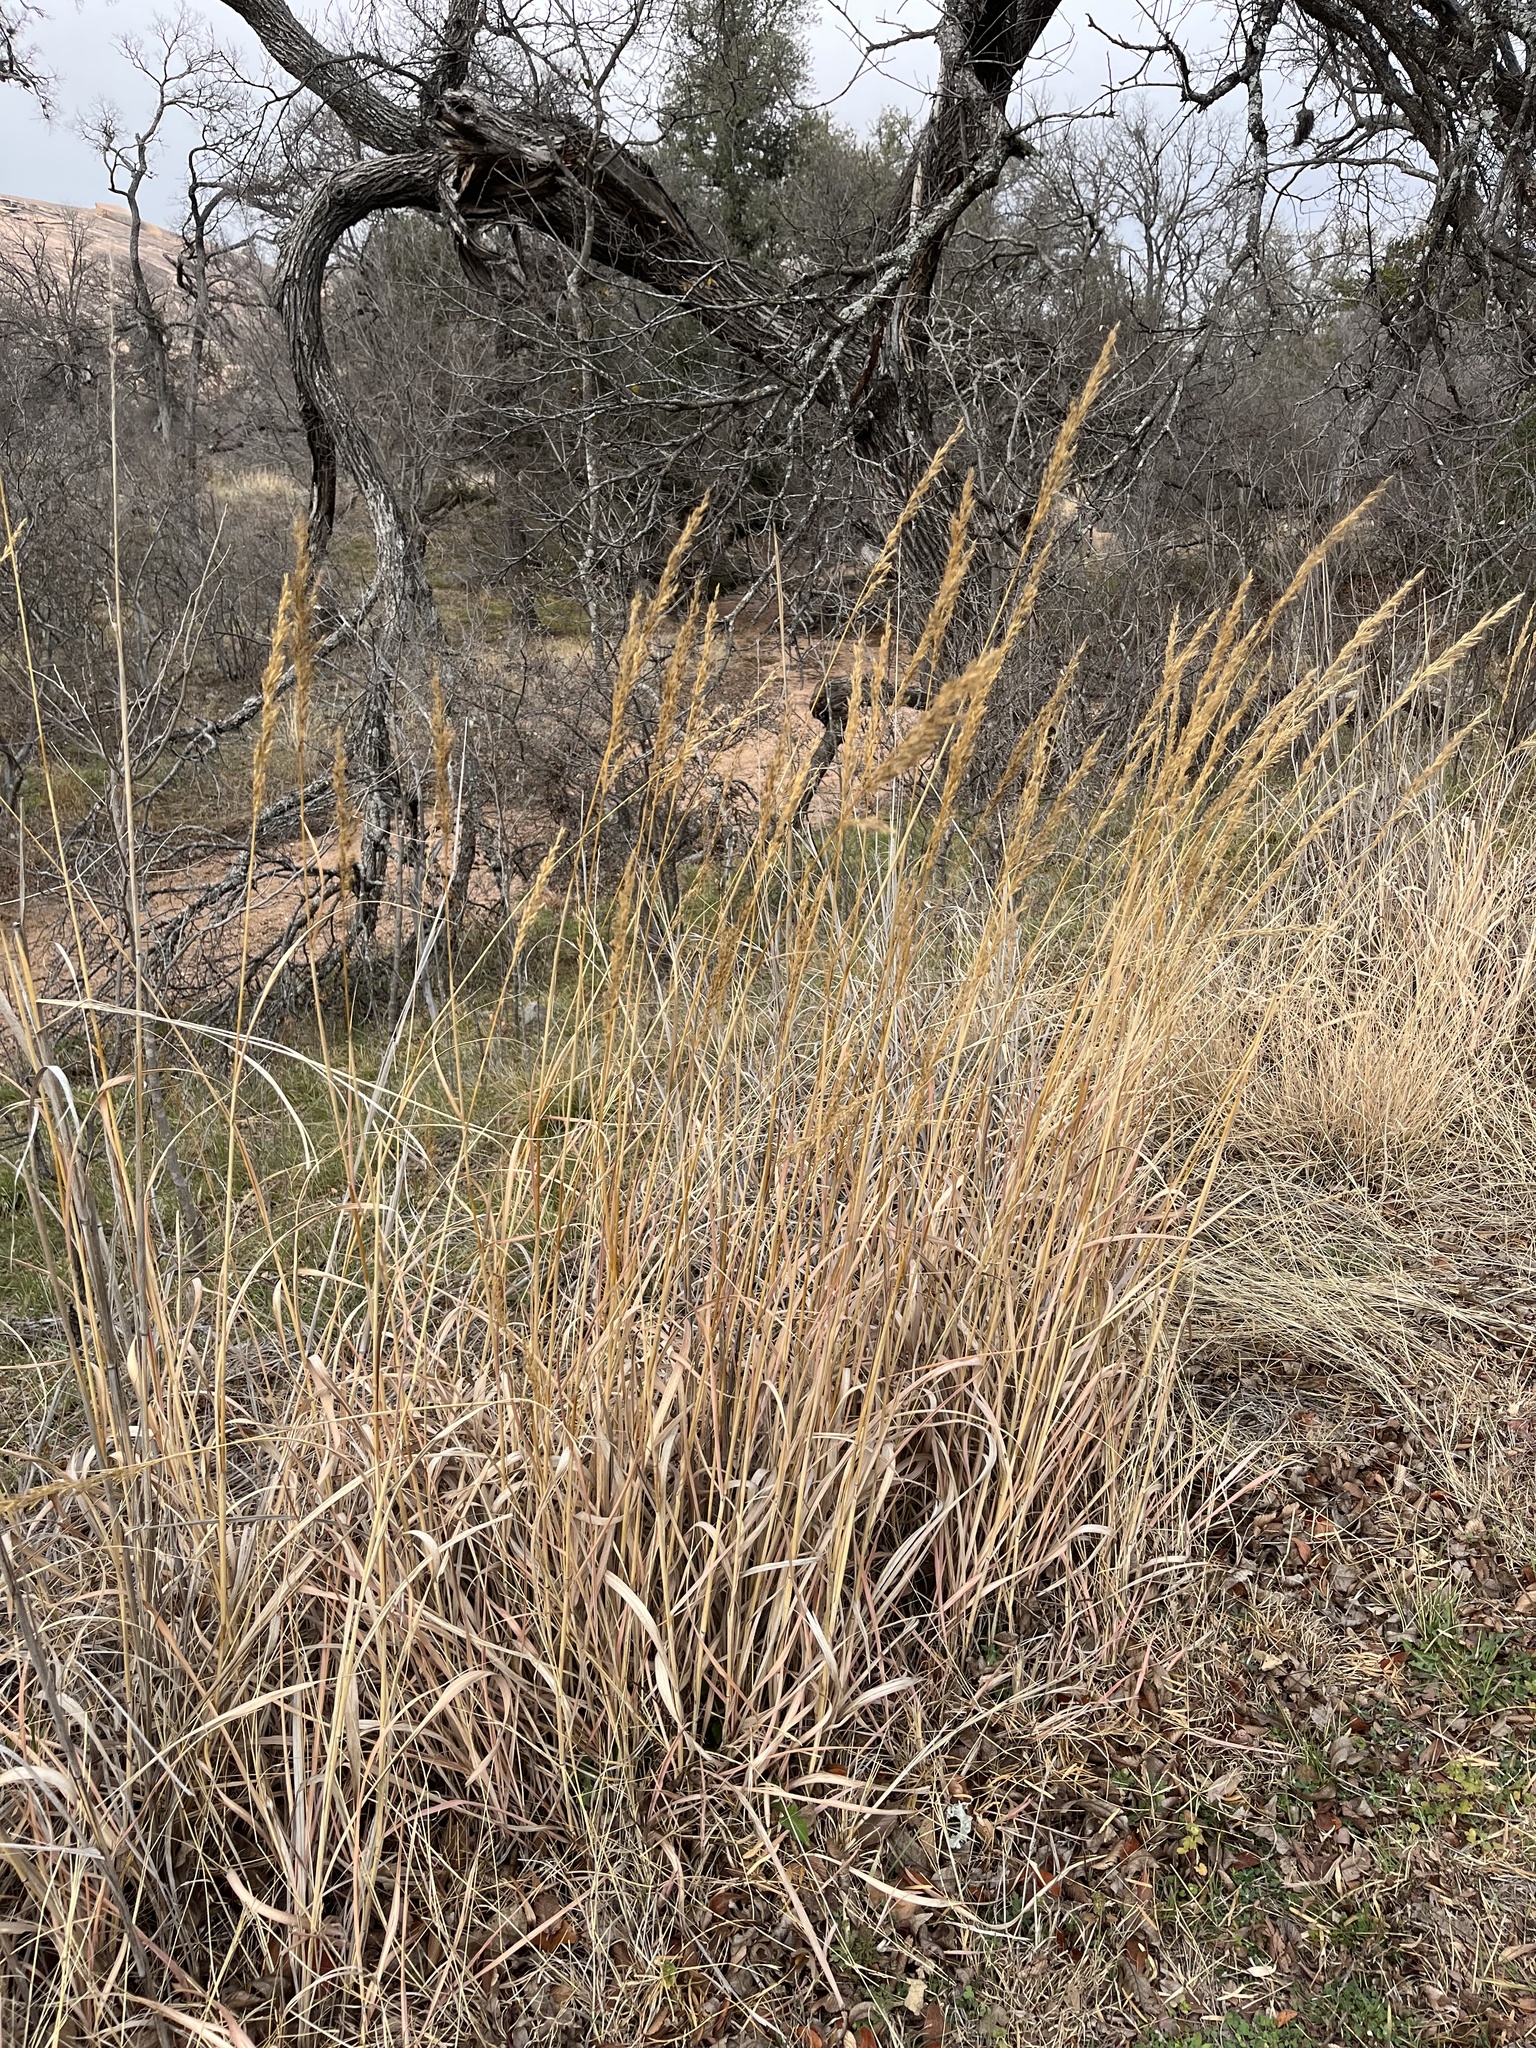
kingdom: Plantae
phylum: Tracheophyta
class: Liliopsida
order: Poales
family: Poaceae
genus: Sorghastrum
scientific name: Sorghastrum nutans
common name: Indian grass
